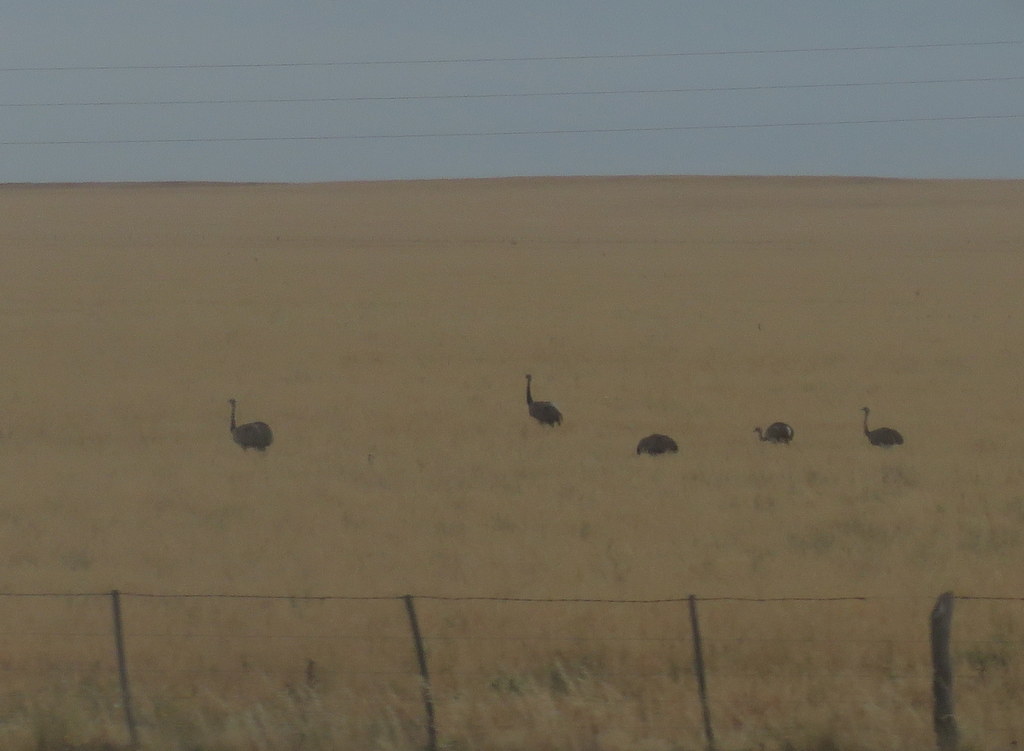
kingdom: Animalia
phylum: Chordata
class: Aves
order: Rheiformes
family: Rheidae
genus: Rhea
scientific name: Rhea americana
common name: Greater rhea
